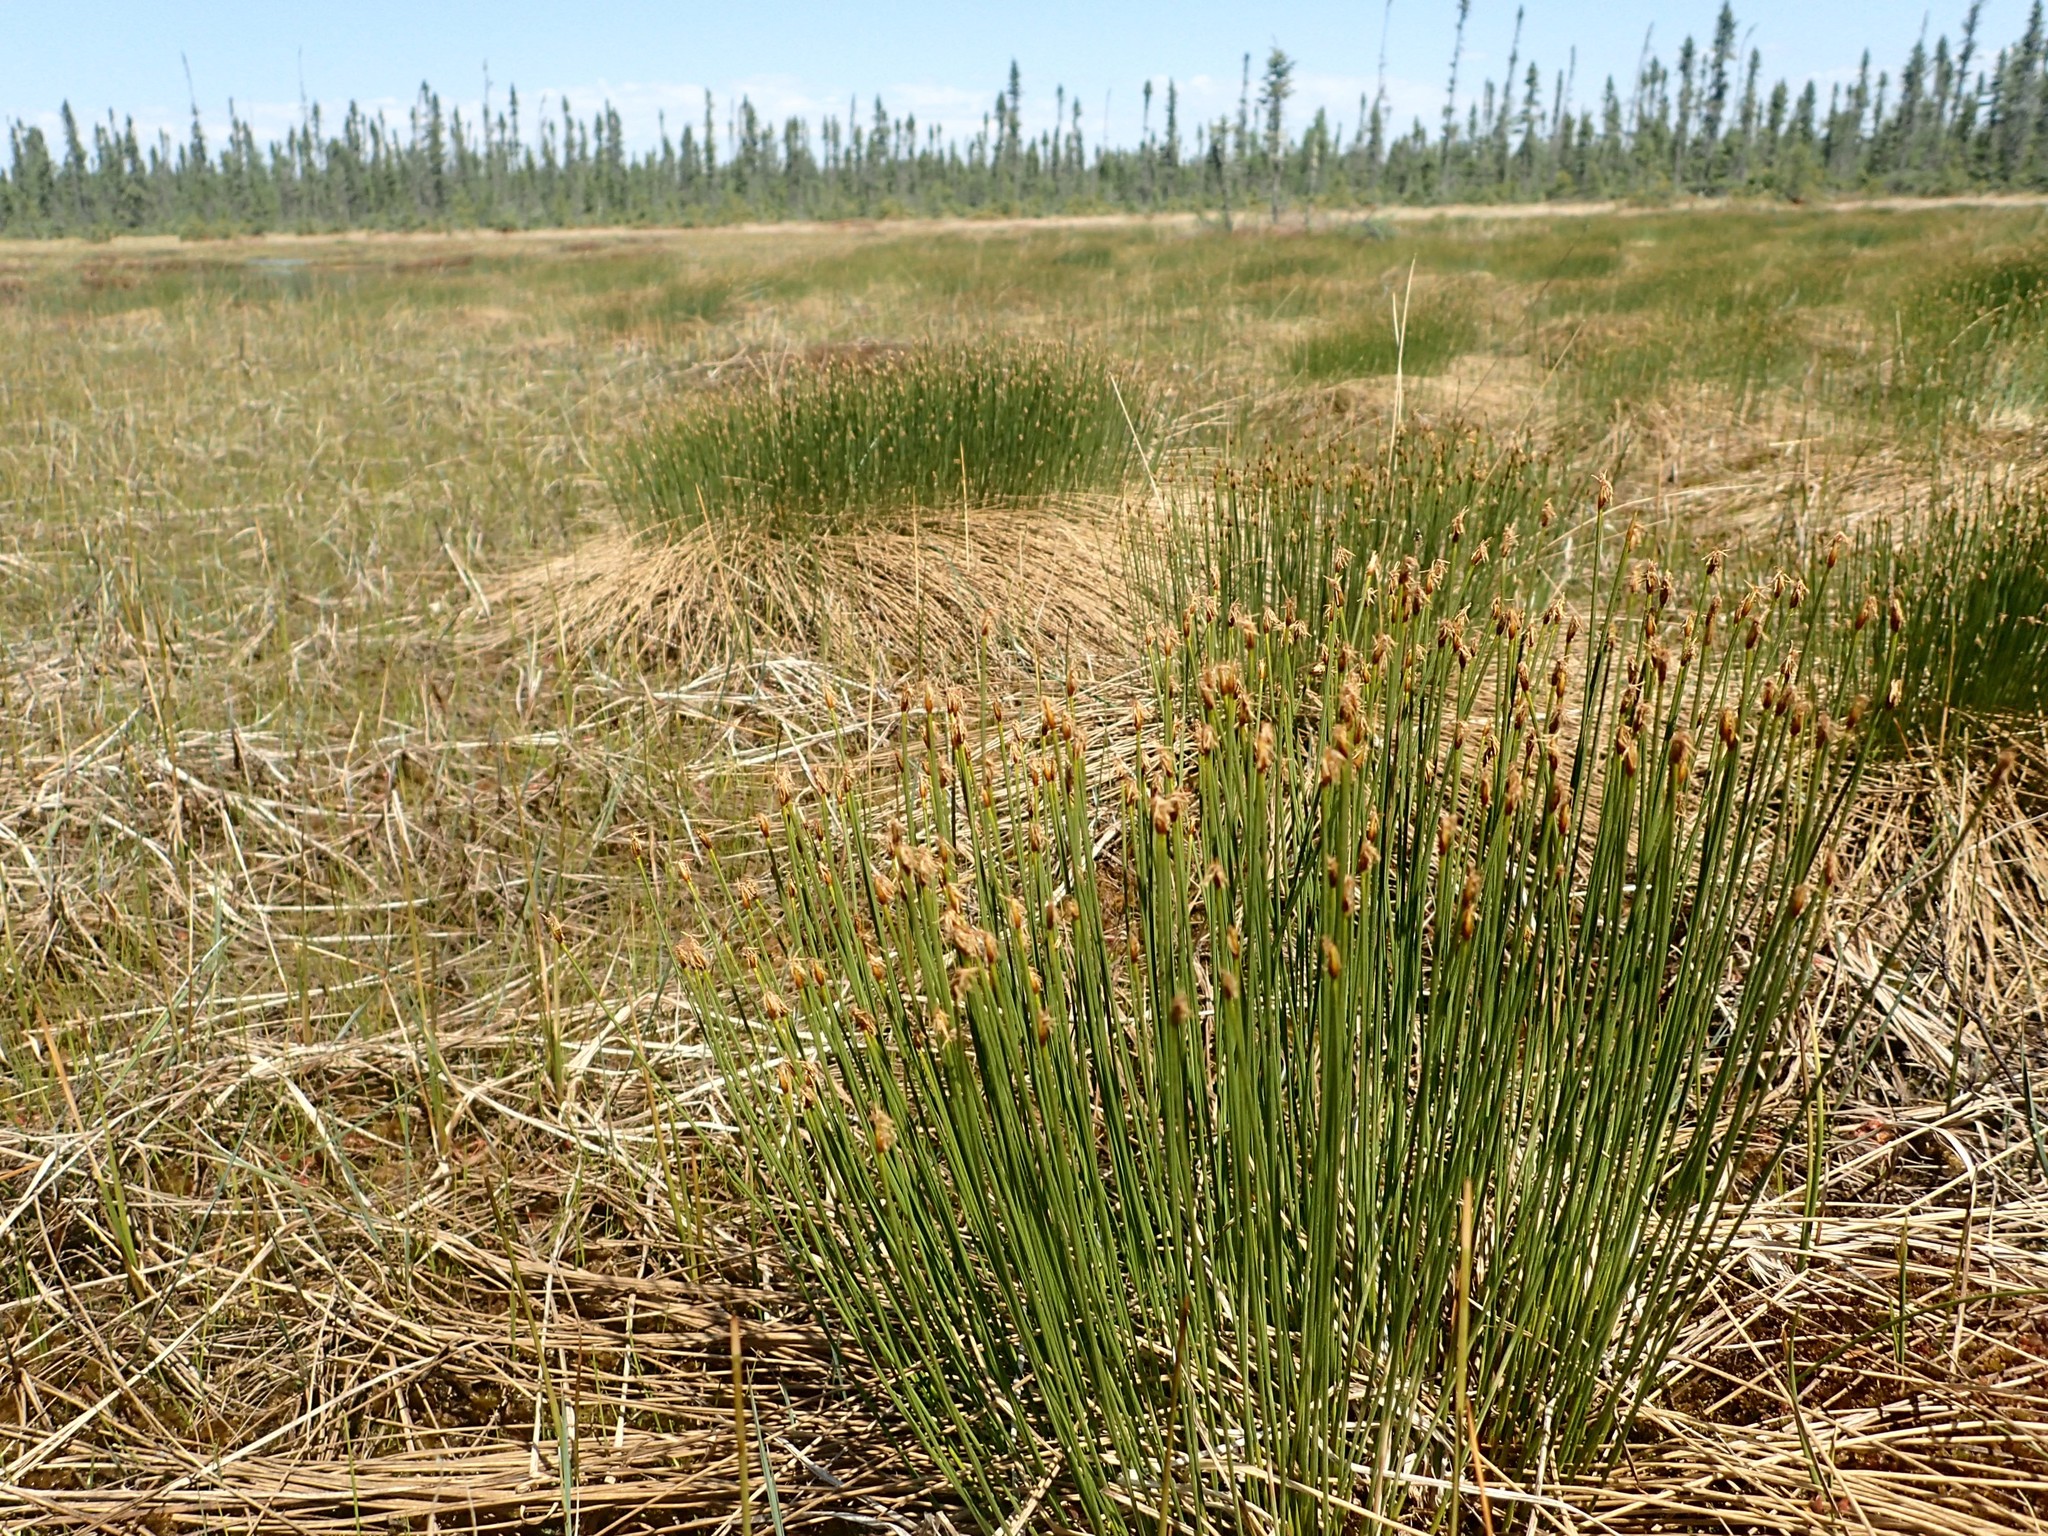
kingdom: Plantae
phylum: Tracheophyta
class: Liliopsida
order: Poales
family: Cyperaceae
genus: Trichophorum
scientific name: Trichophorum cespitosum
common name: Cespitose bulrush
